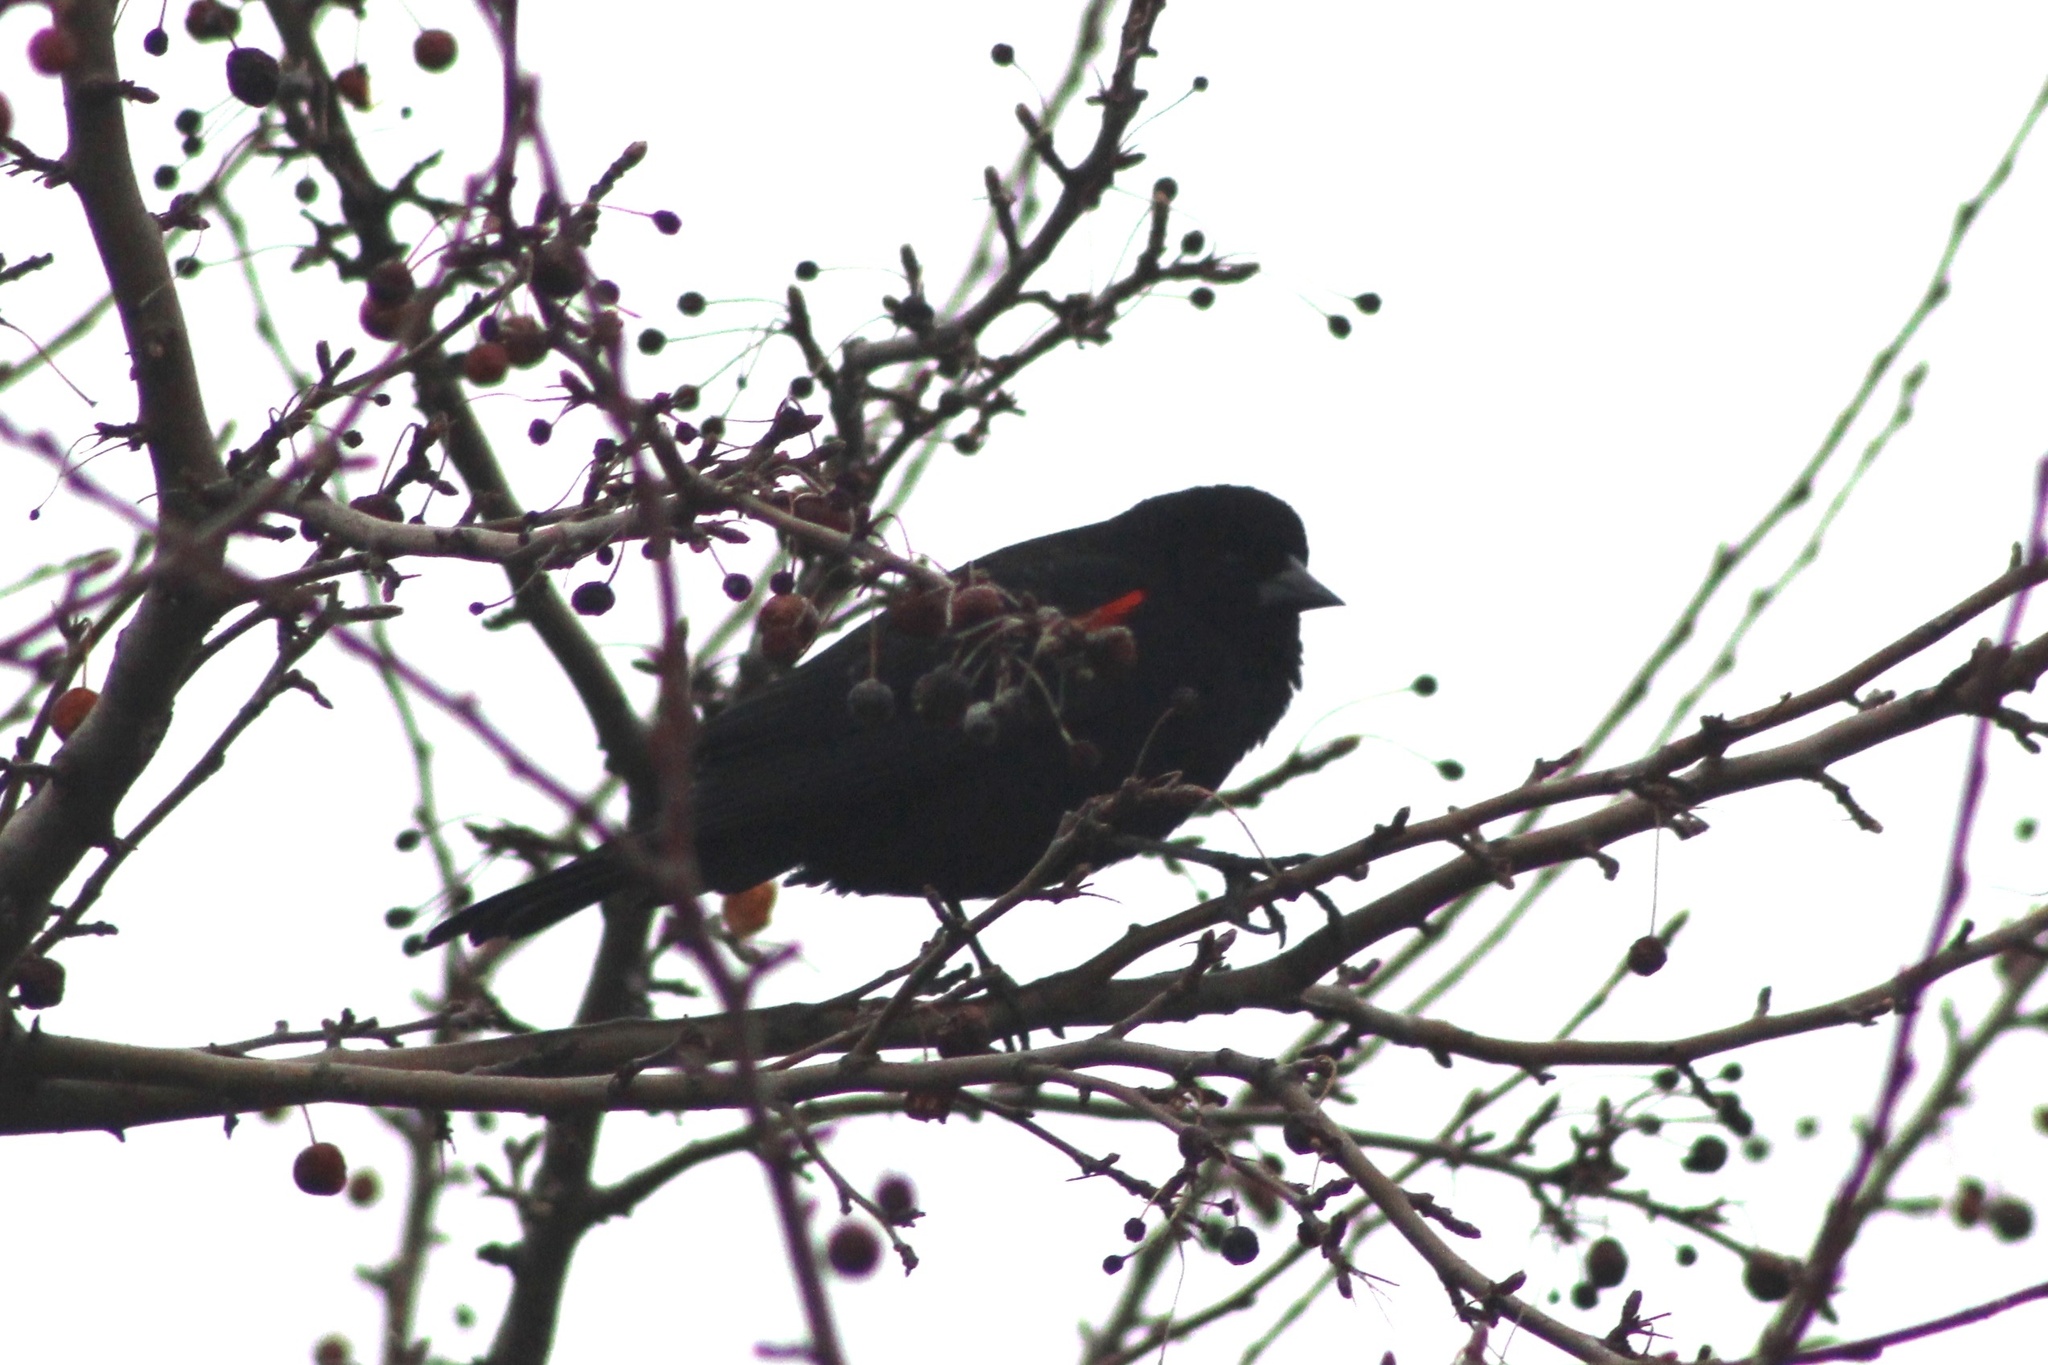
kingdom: Animalia
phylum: Chordata
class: Aves
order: Passeriformes
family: Icteridae
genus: Agelaius
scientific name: Agelaius phoeniceus
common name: Red-winged blackbird
